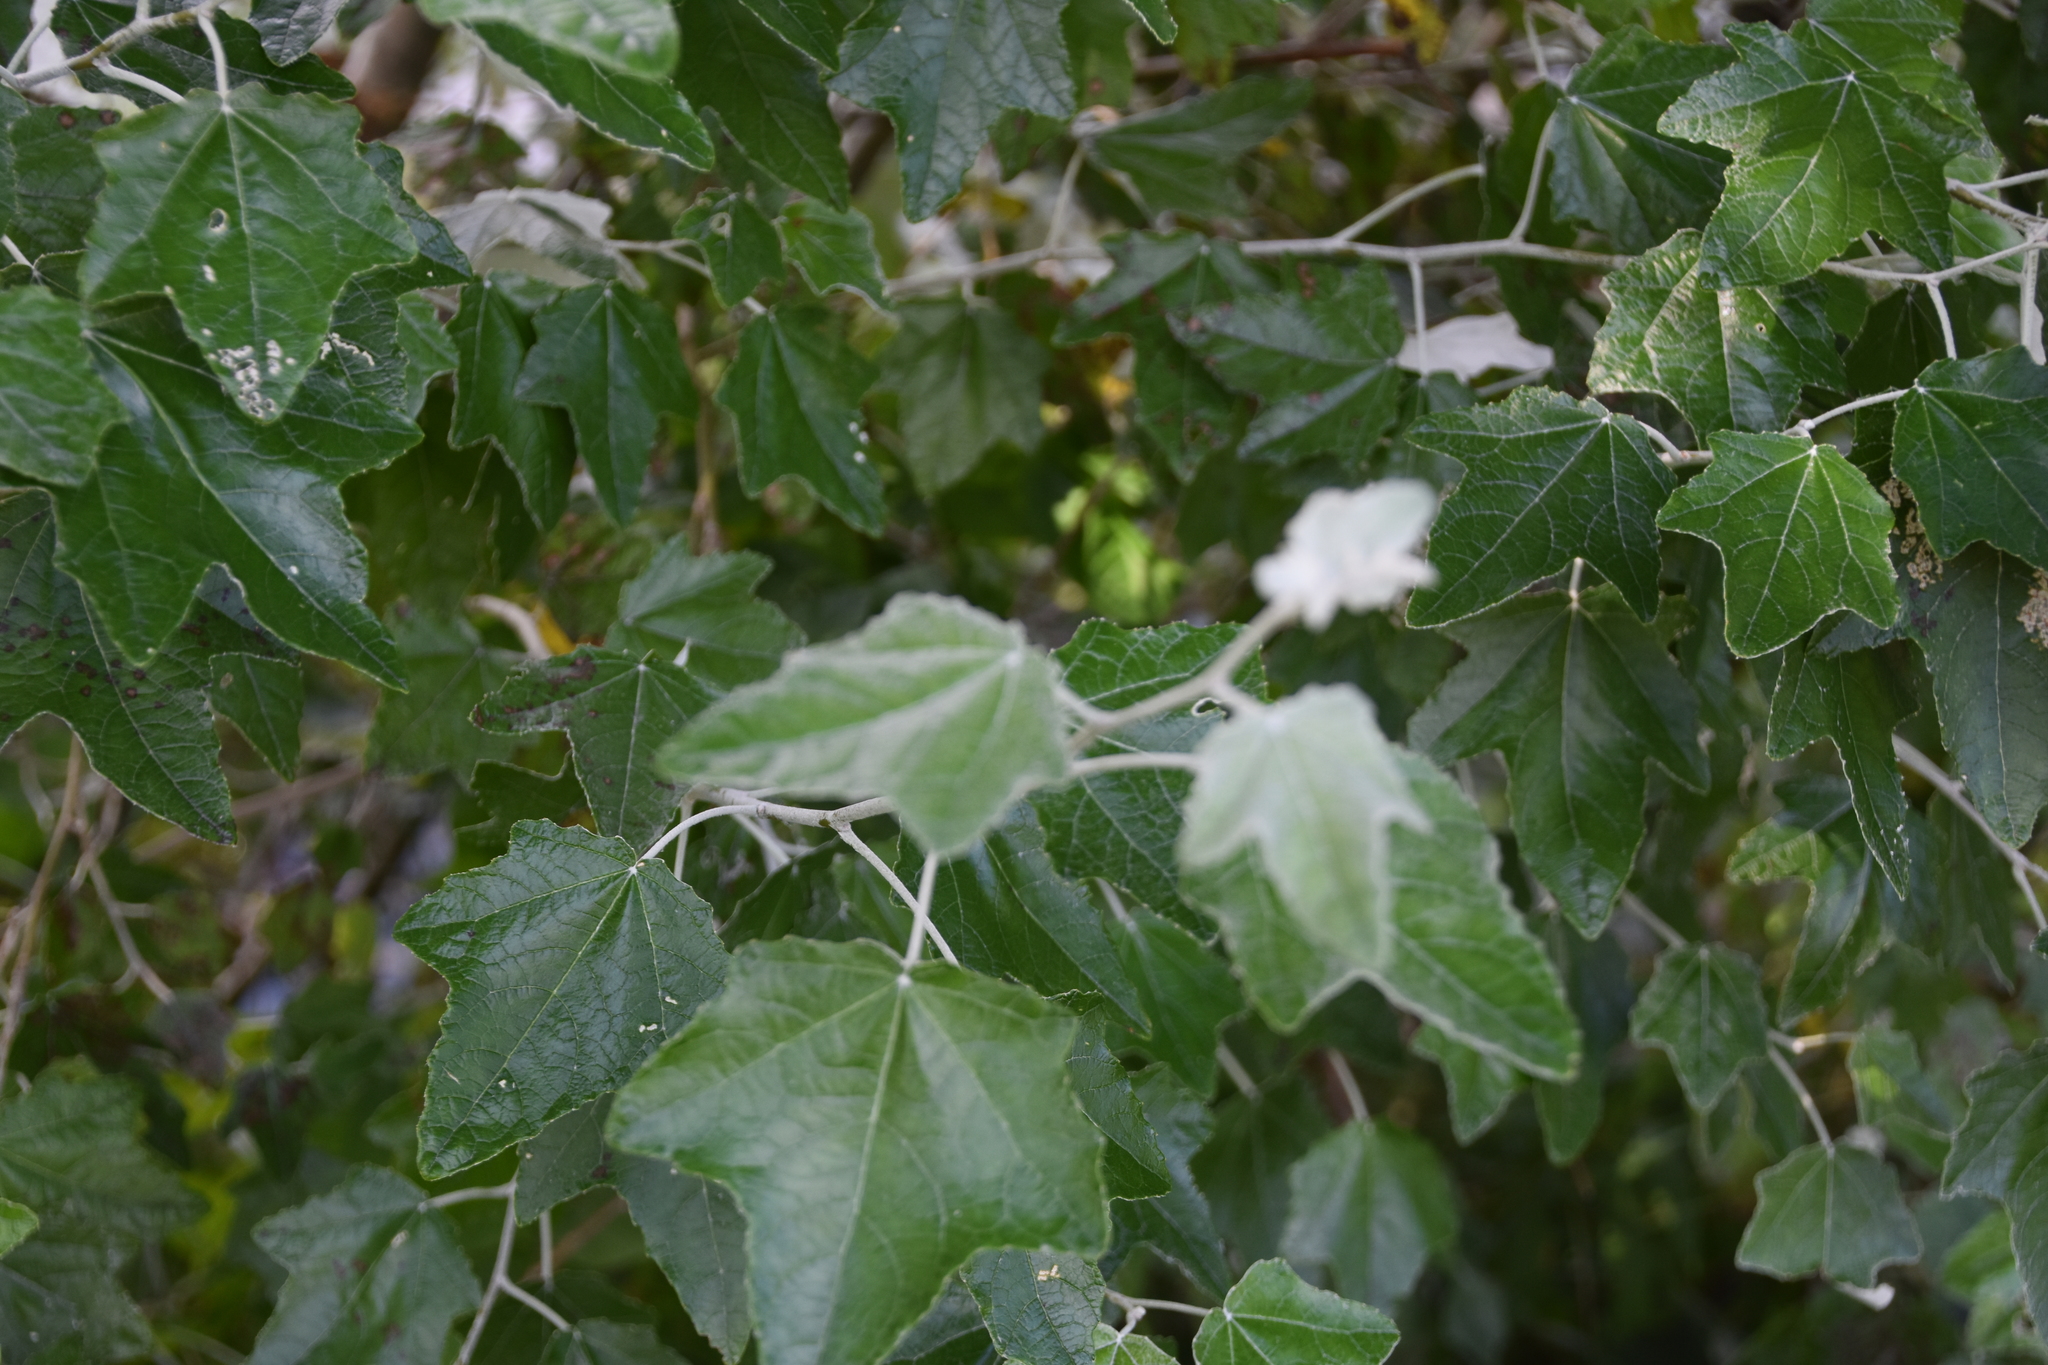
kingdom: Plantae
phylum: Tracheophyta
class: Magnoliopsida
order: Malpighiales
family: Salicaceae
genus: Populus
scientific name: Populus alba
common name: White poplar
